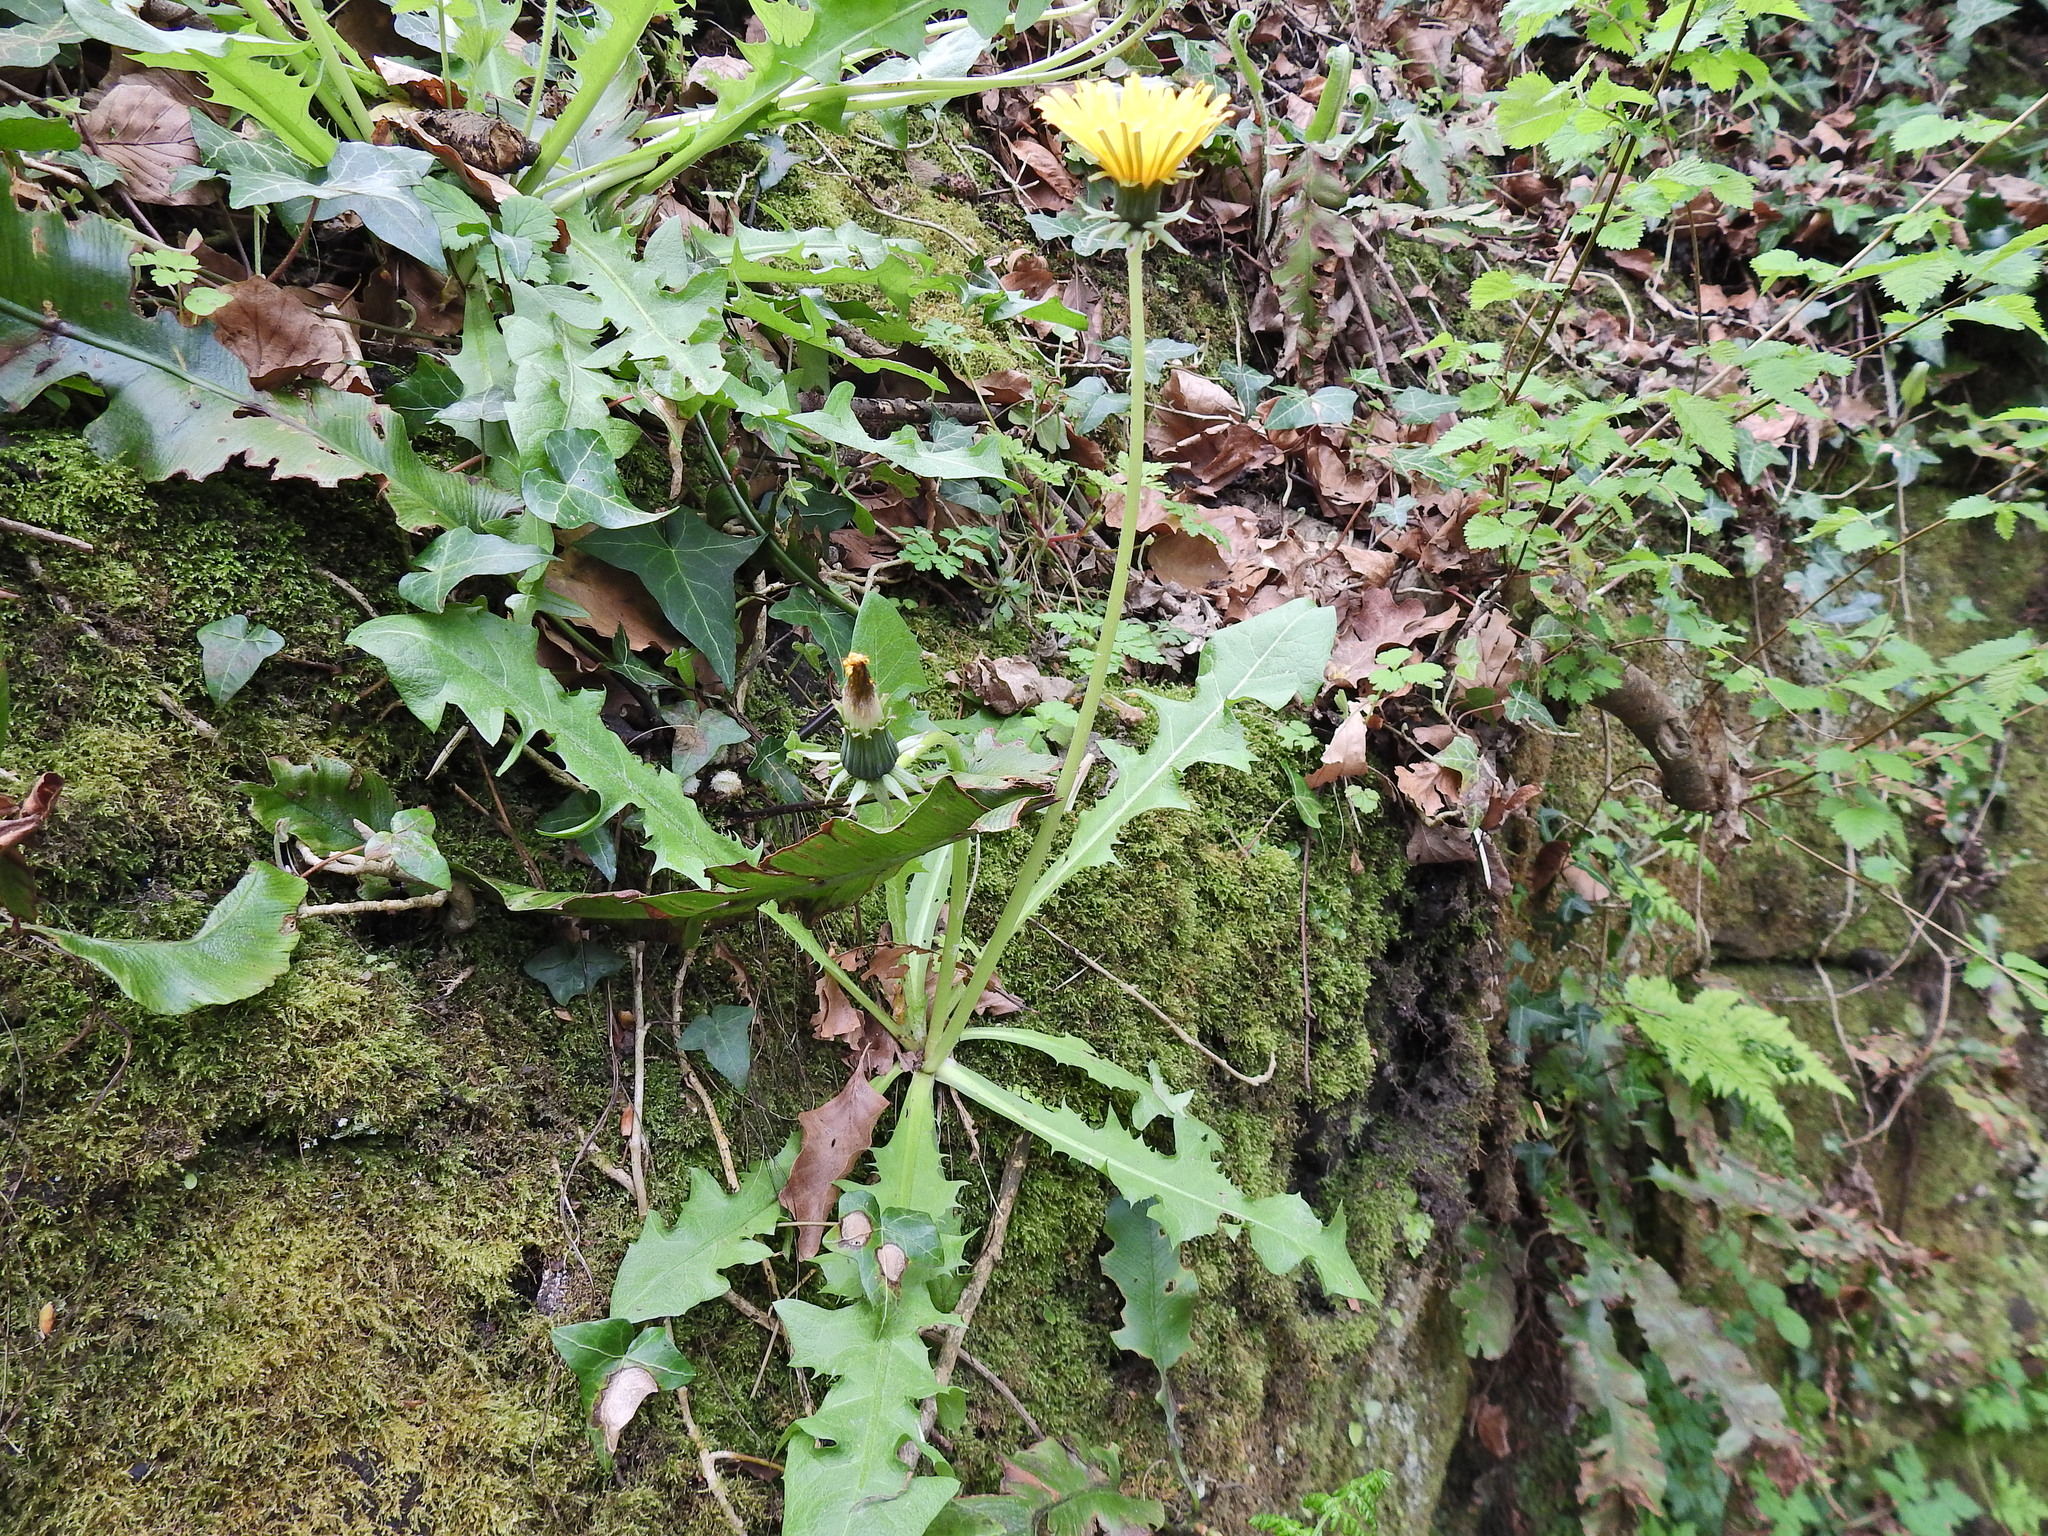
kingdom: Plantae
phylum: Tracheophyta
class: Magnoliopsida
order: Asterales
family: Asteraceae
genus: Taraxacum
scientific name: Taraxacum officinale
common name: Common dandelion
